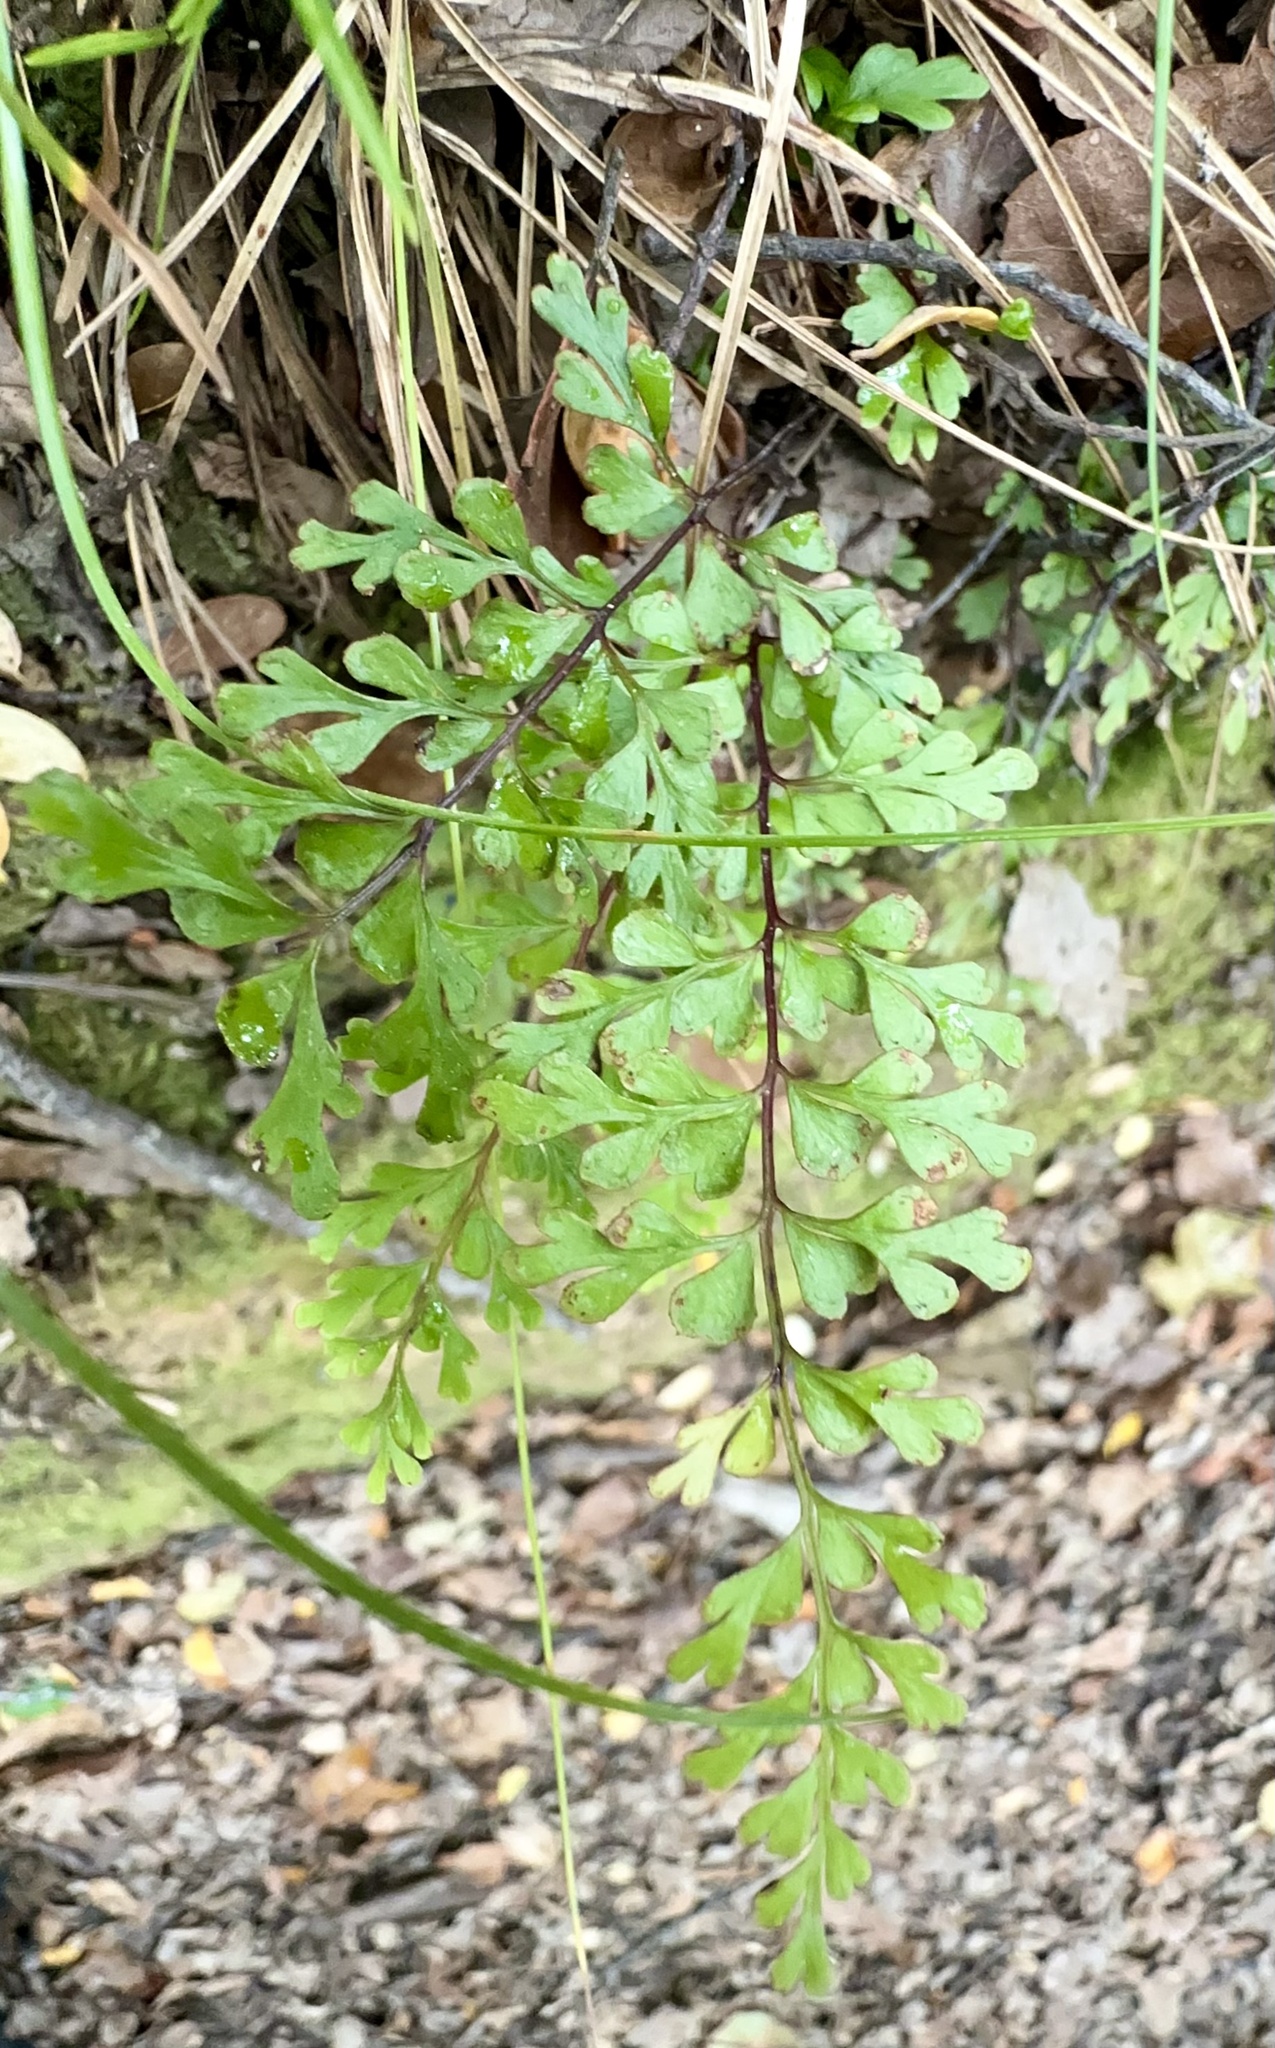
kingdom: Plantae
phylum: Tracheophyta
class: Polypodiopsida
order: Polypodiales
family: Lindsaeaceae
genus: Lindsaea
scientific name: Lindsaea trichomanoides
